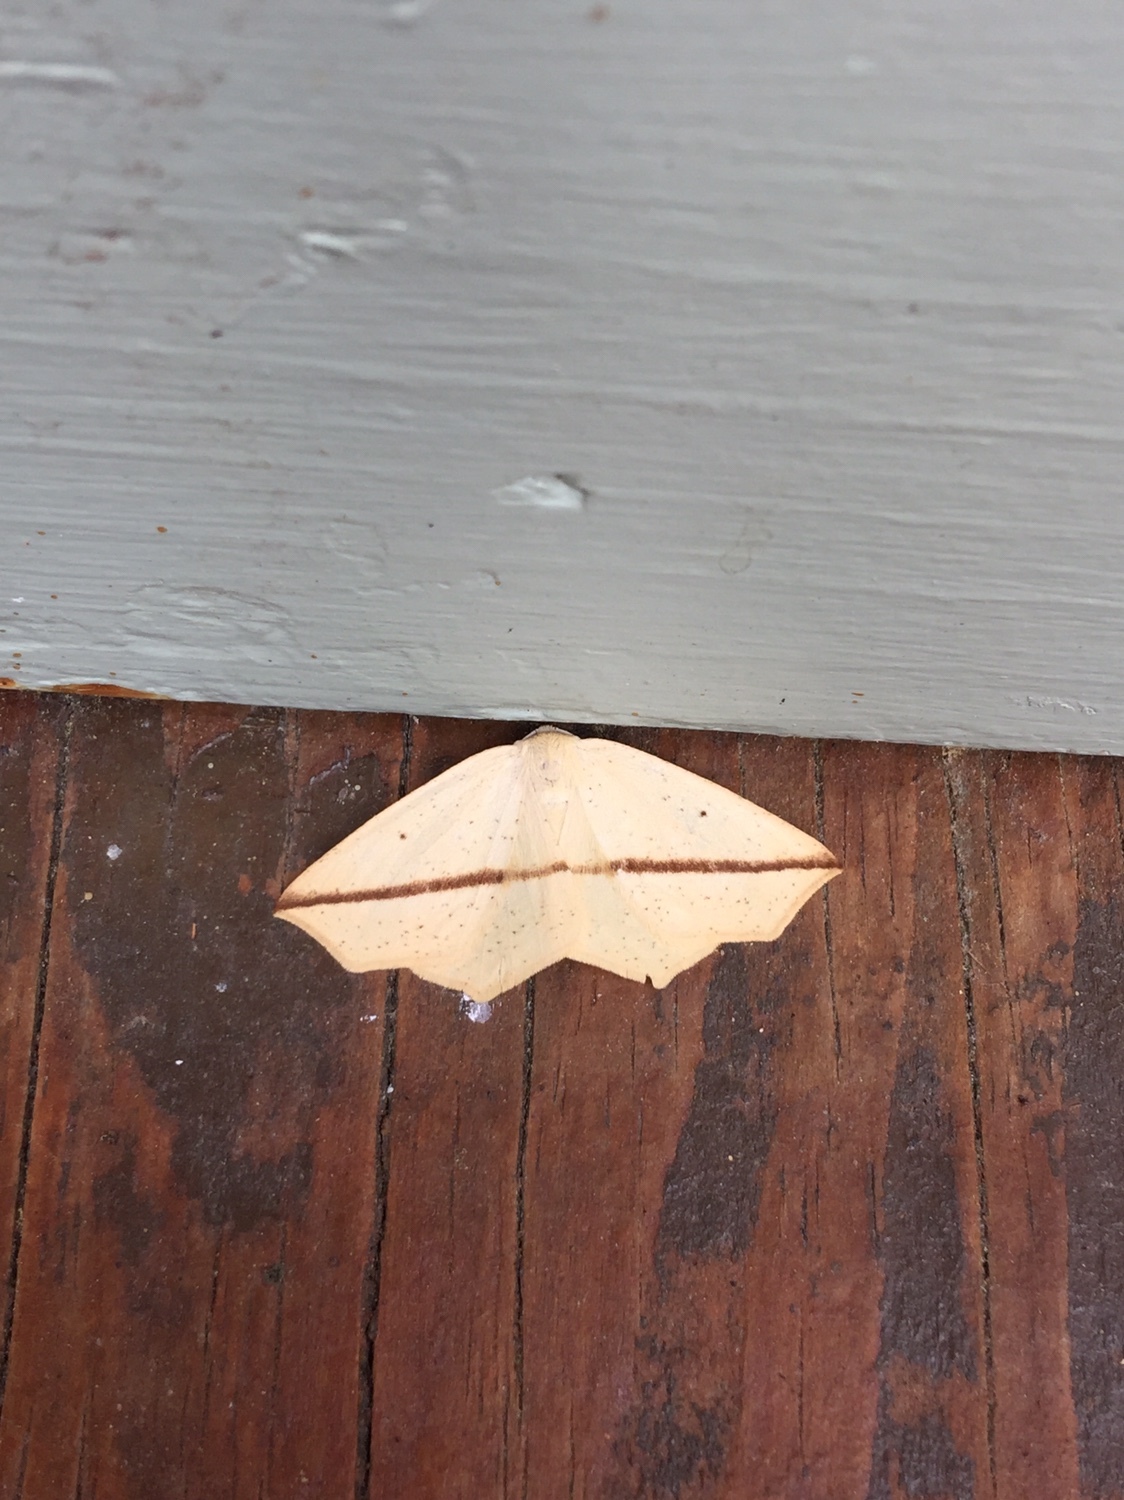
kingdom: Animalia
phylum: Arthropoda
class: Insecta
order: Lepidoptera
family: Geometridae
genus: Tetracis
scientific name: Tetracis crocallata
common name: Yellow slant-line
